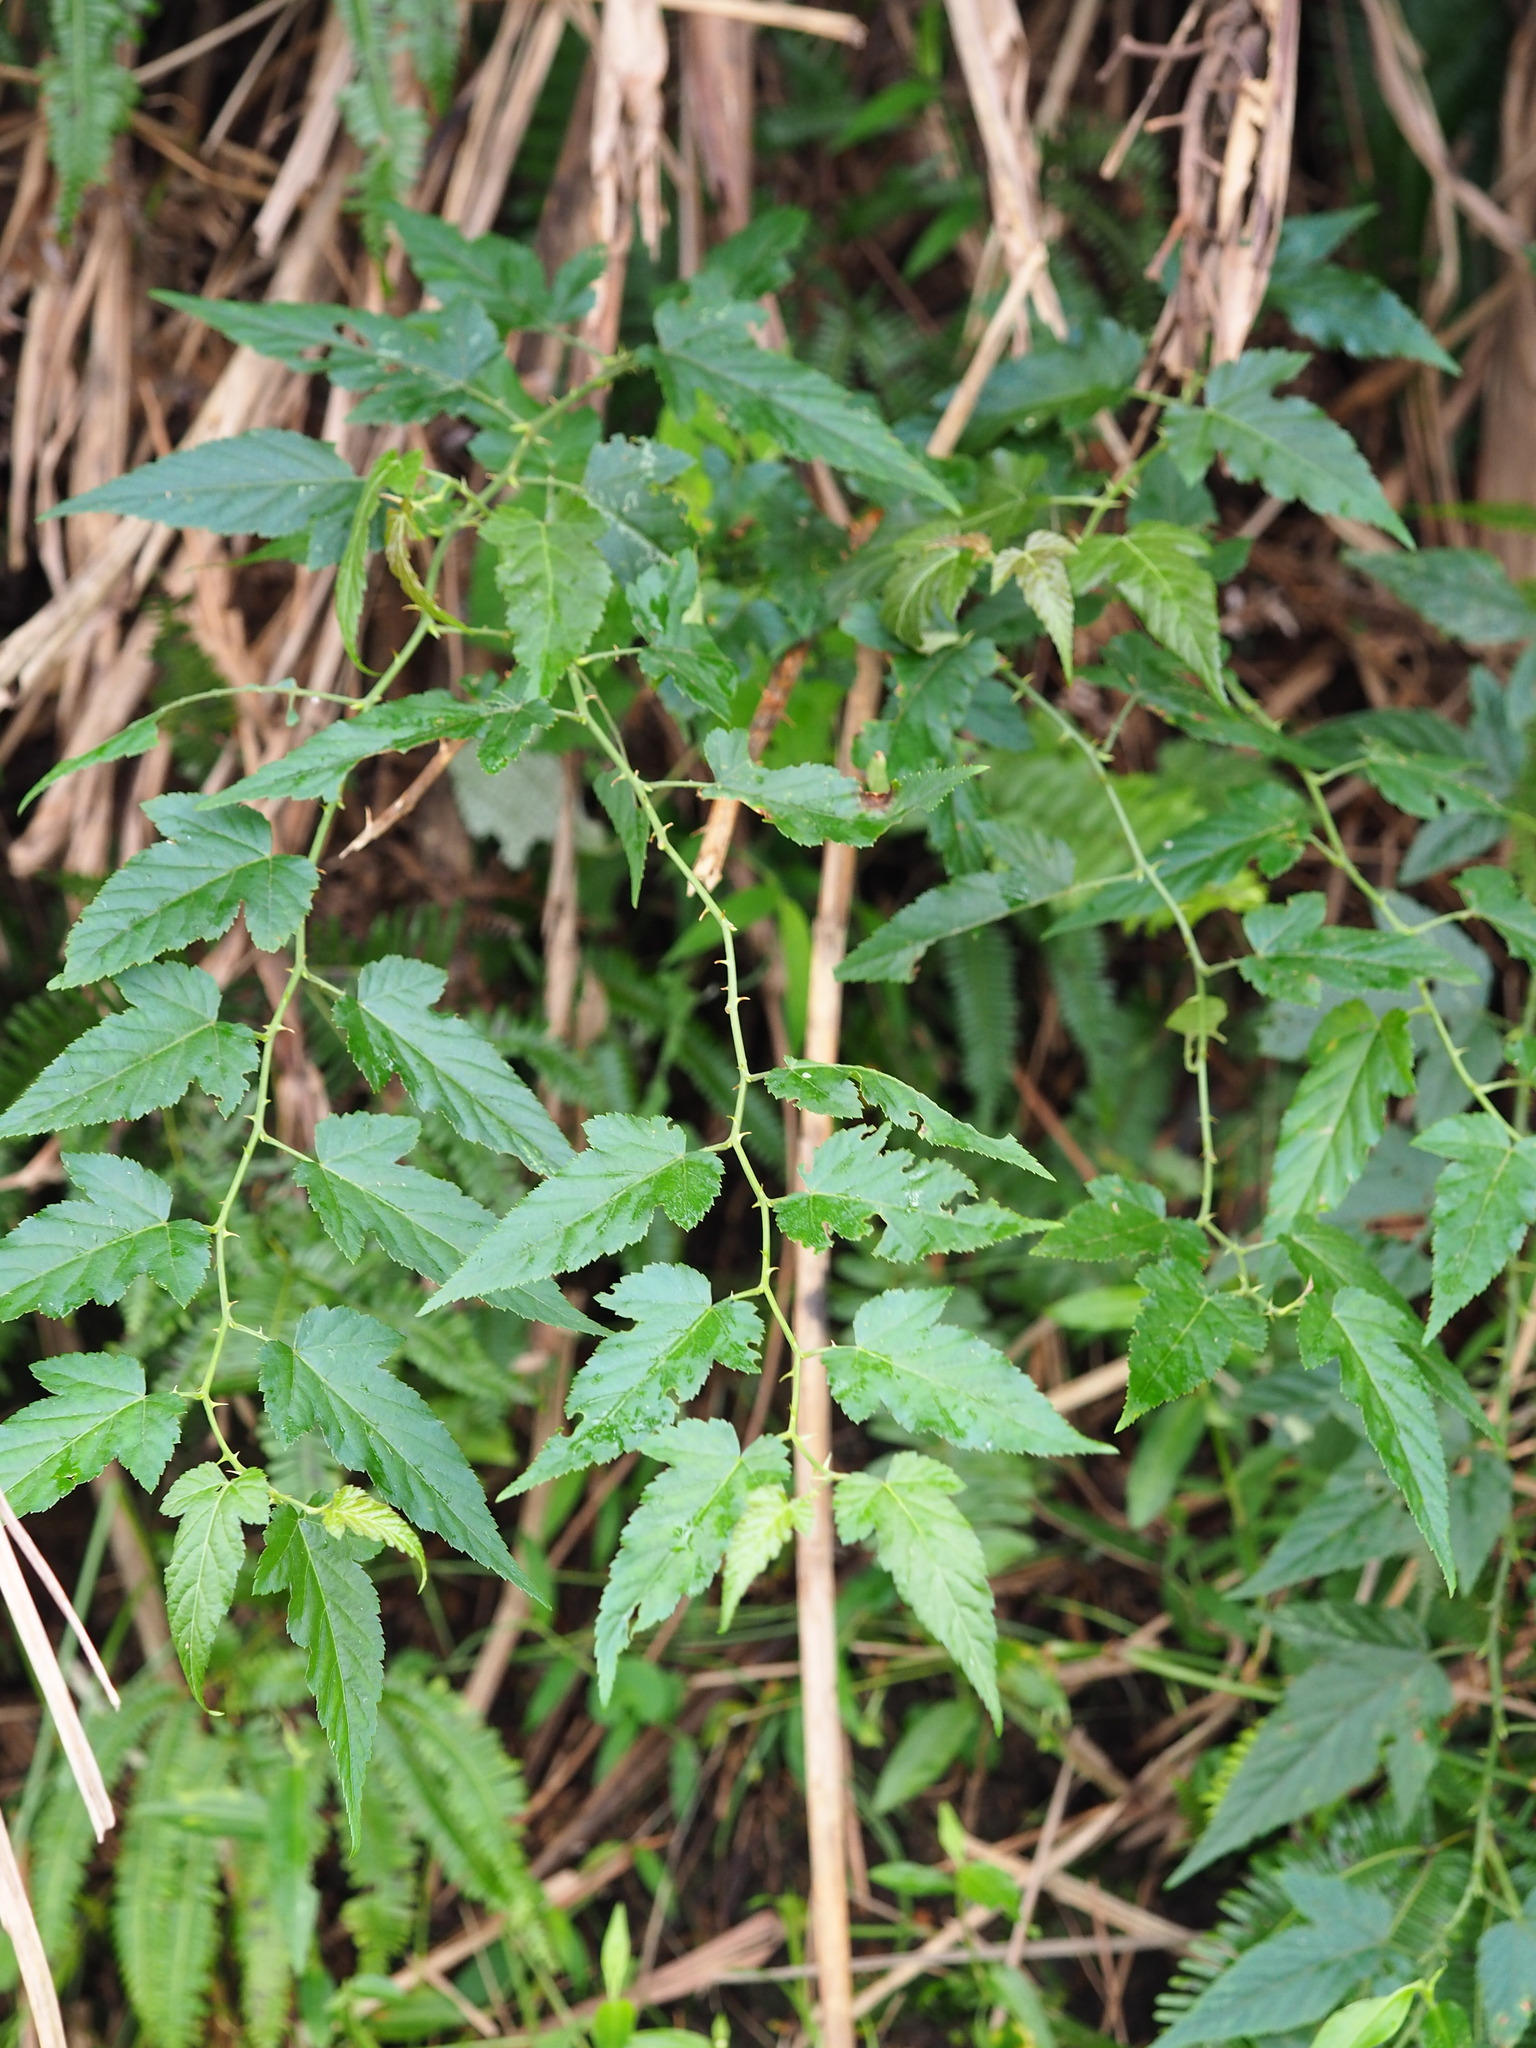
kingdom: Plantae
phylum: Tracheophyta
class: Magnoliopsida
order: Rosales
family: Rosaceae
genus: Rubus
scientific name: Rubus corchorifolius
